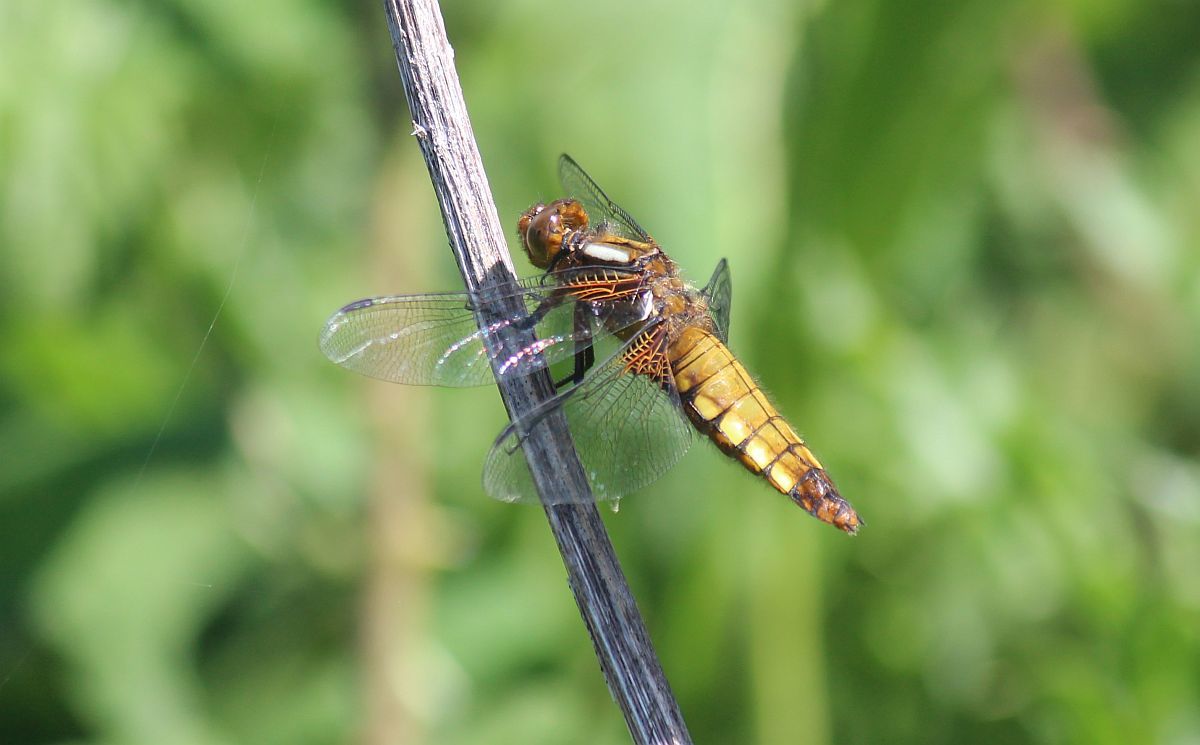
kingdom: Animalia
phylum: Arthropoda
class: Insecta
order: Odonata
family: Libellulidae
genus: Libellula
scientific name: Libellula depressa
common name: Broad-bodied chaser
